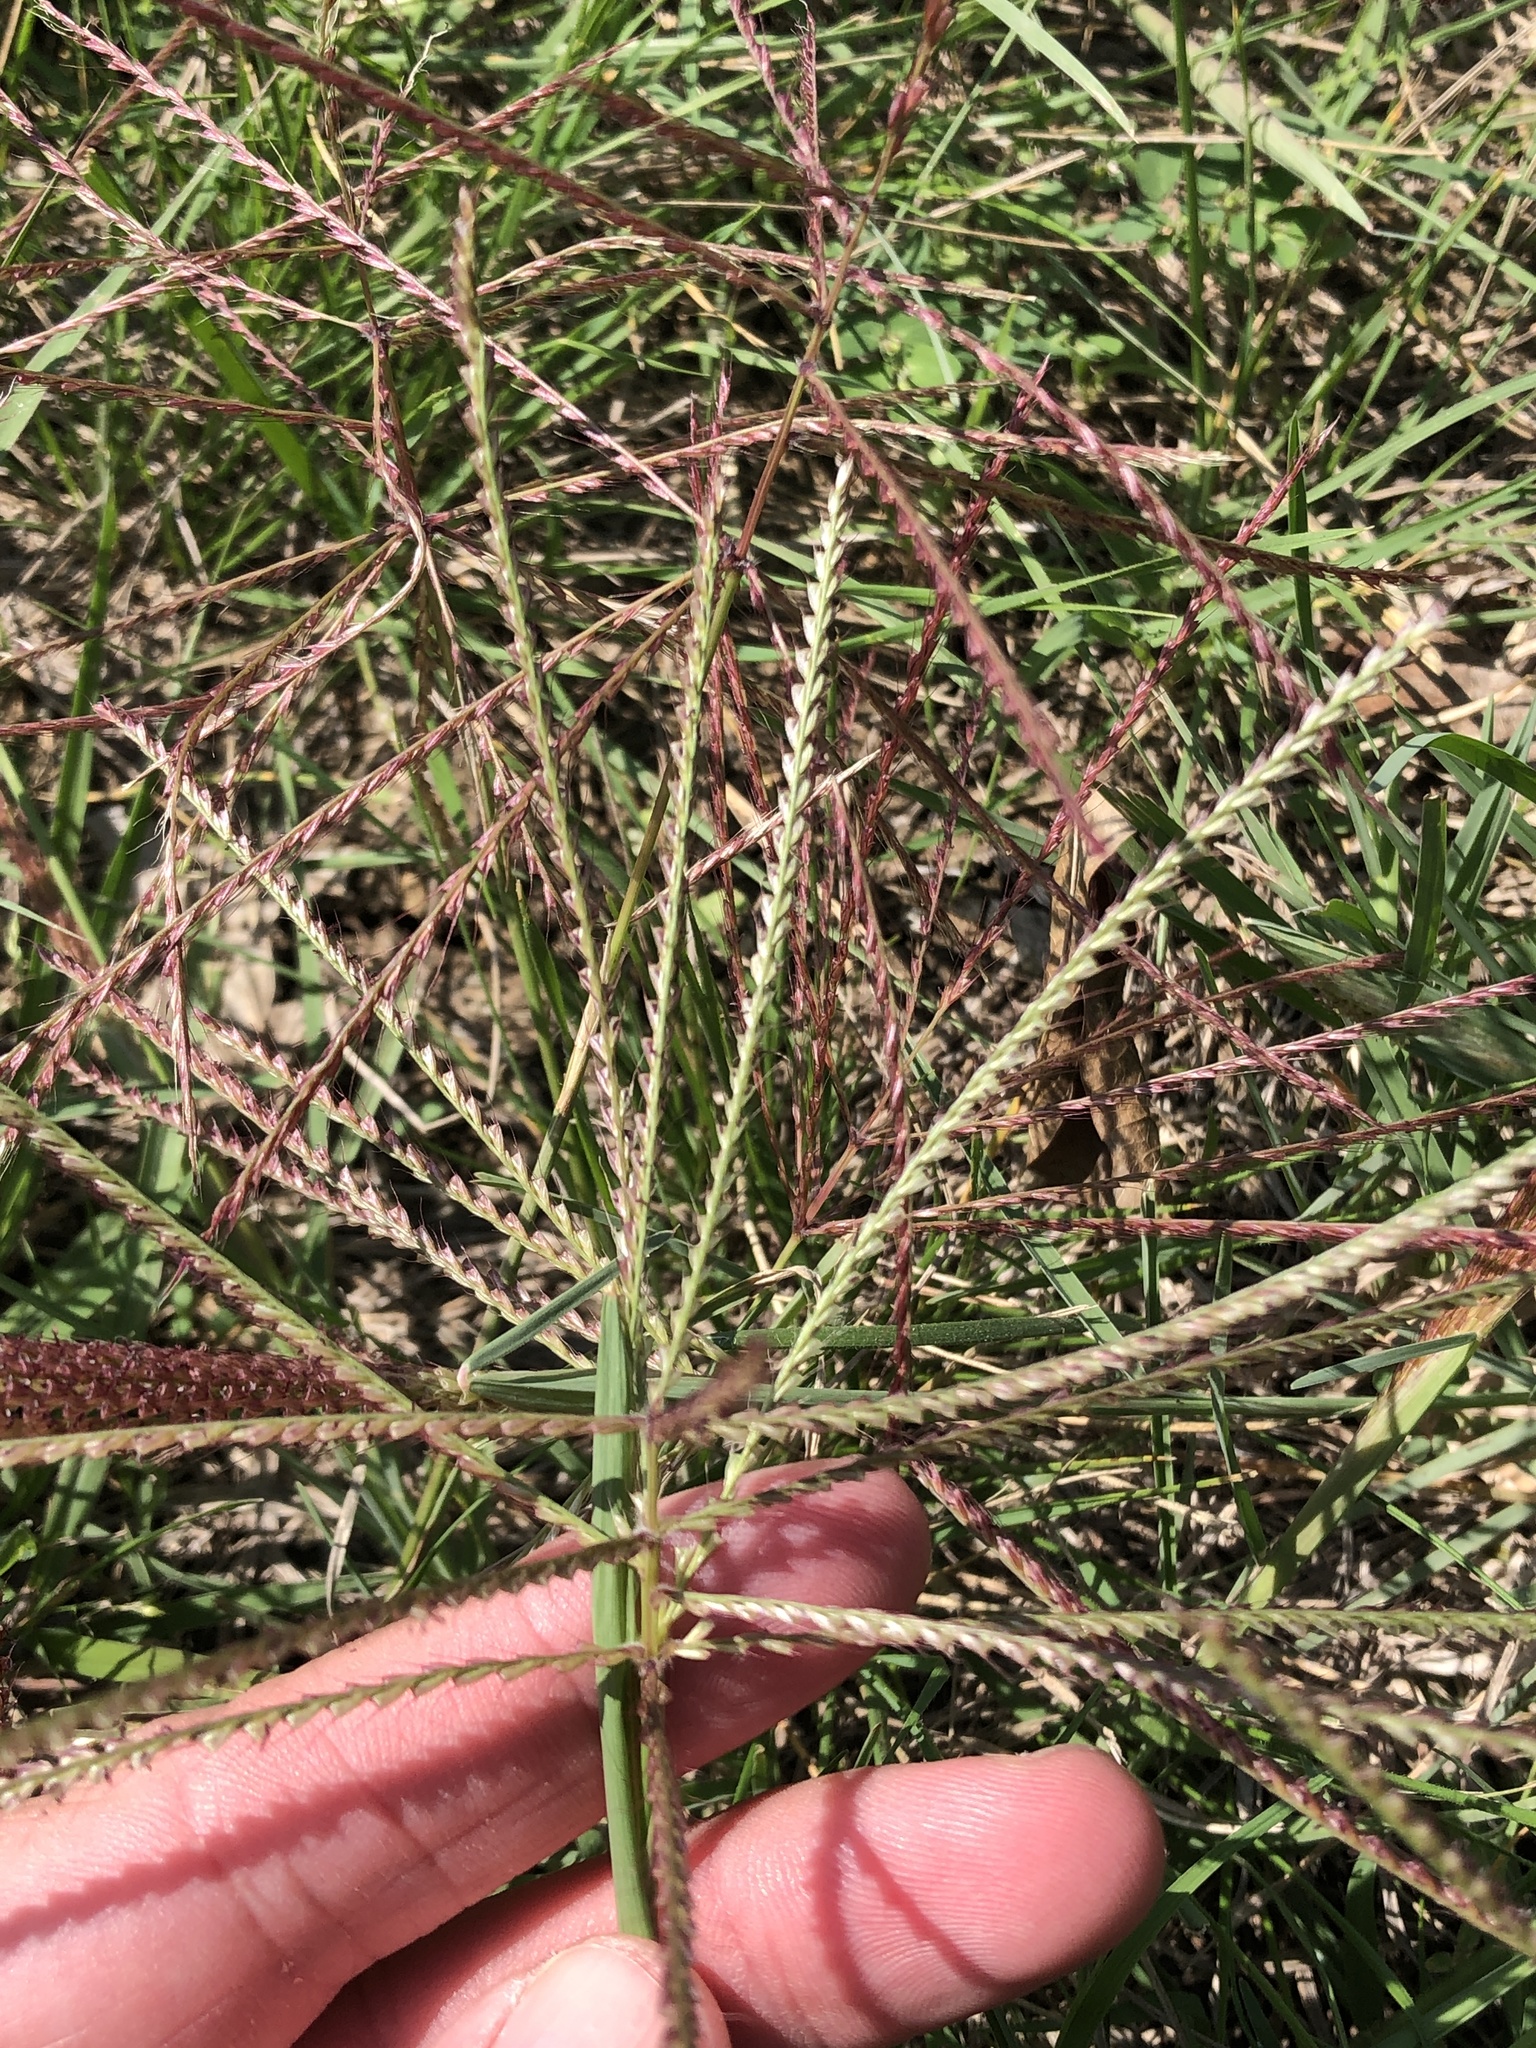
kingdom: Plantae
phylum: Tracheophyta
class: Liliopsida
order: Poales
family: Poaceae
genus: Chloris
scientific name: Chloris verticillata
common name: Tumble windmill grass
